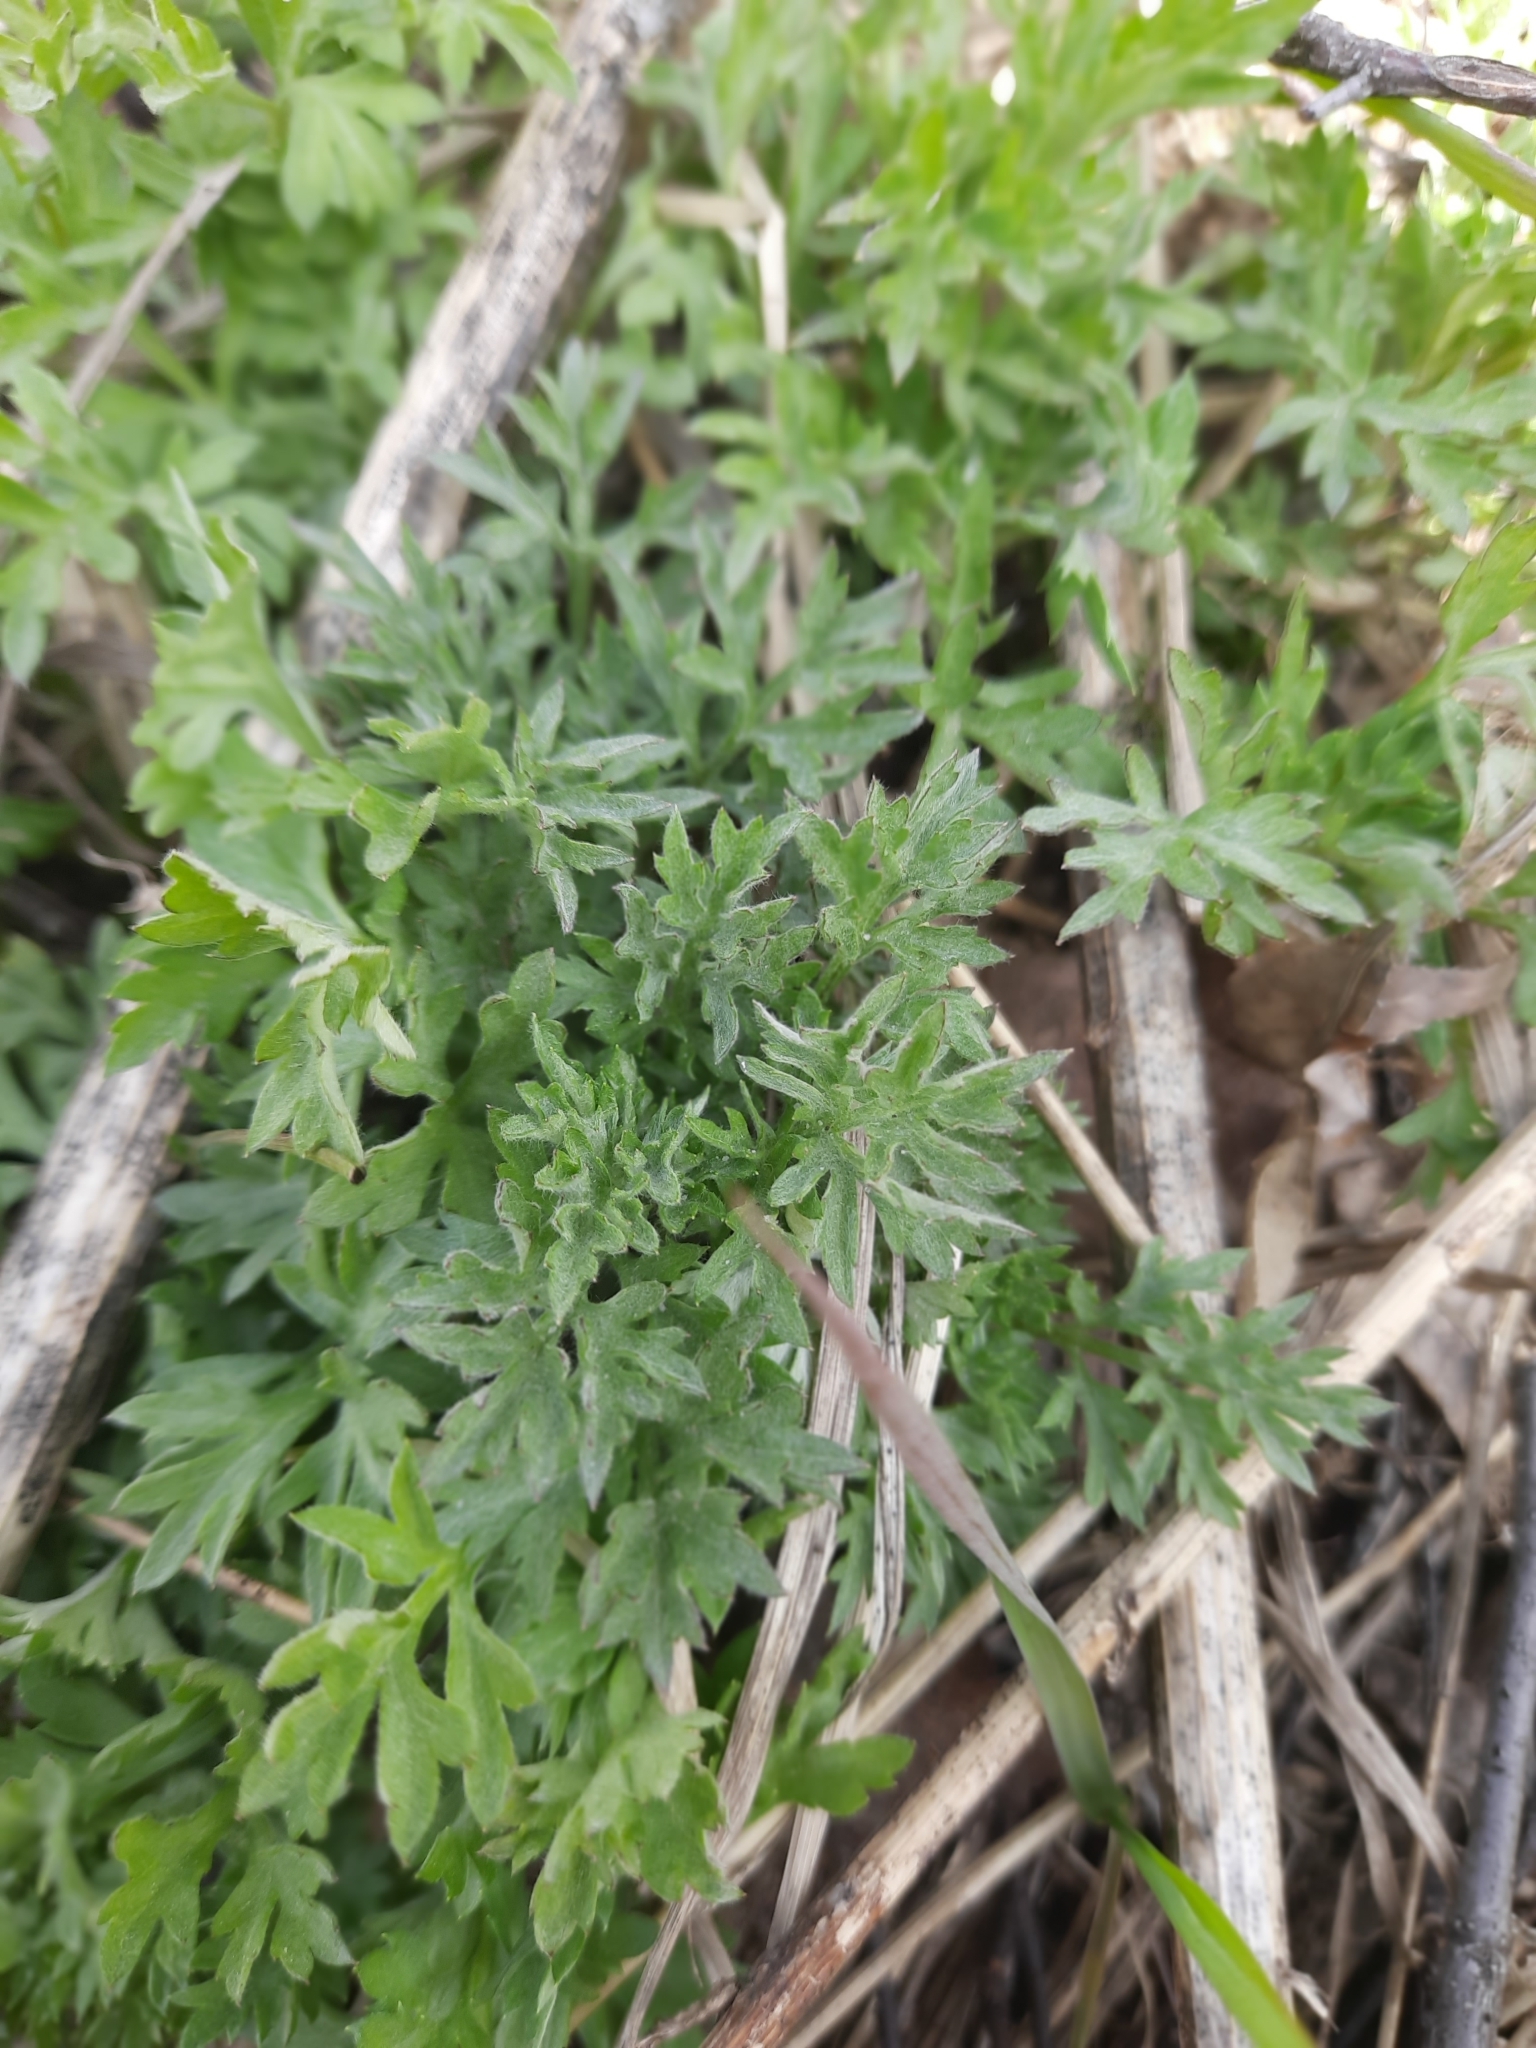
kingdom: Plantae
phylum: Tracheophyta
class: Magnoliopsida
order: Asterales
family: Asteraceae
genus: Artemisia
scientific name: Artemisia vulgaris
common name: Mugwort
